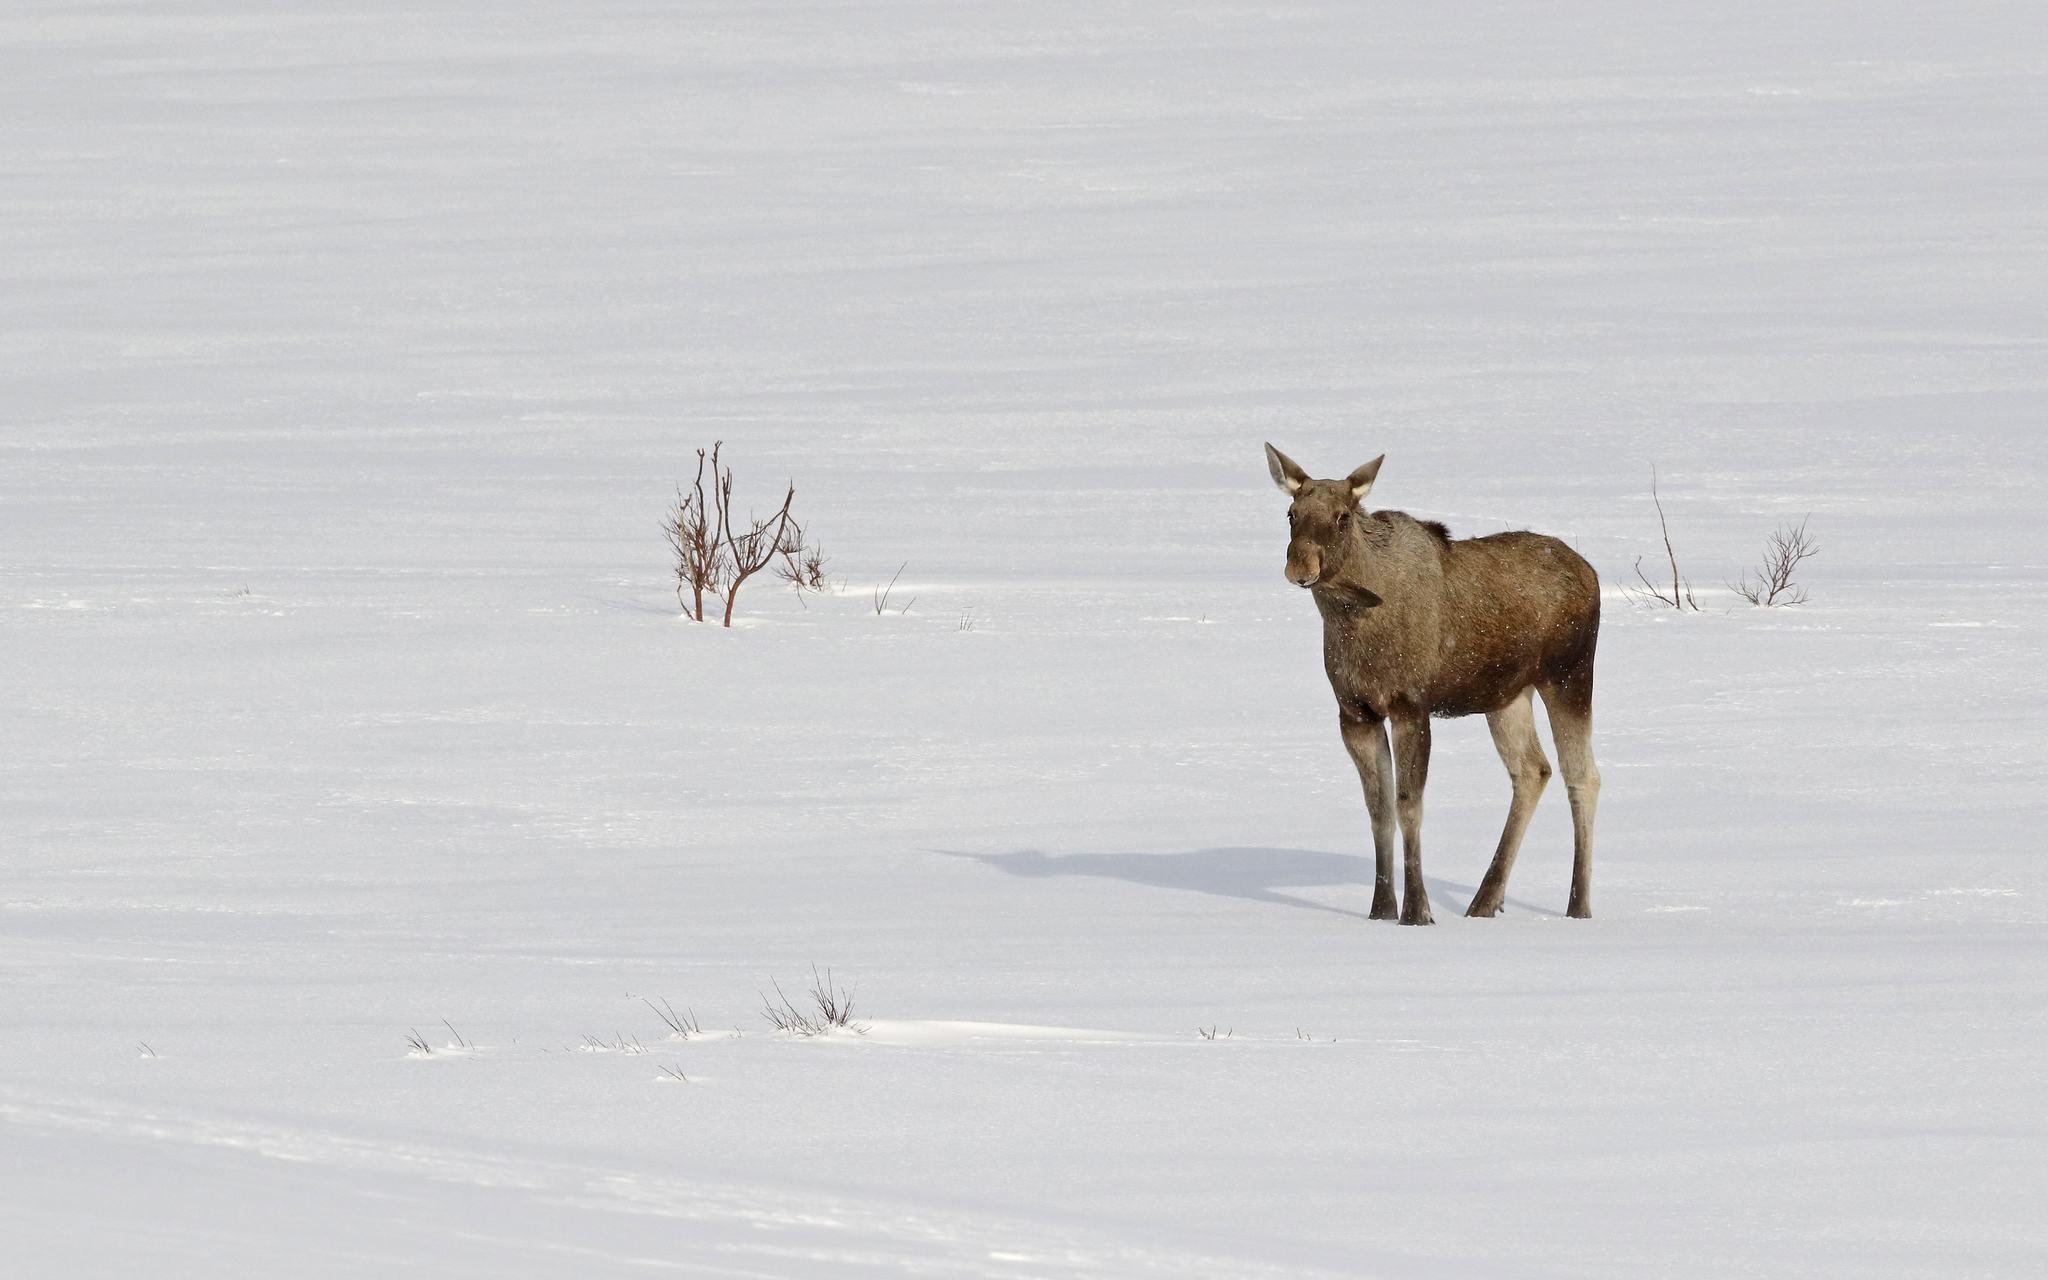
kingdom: Animalia
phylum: Chordata
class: Mammalia
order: Artiodactyla
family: Cervidae
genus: Alces
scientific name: Alces alces
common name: Moose
